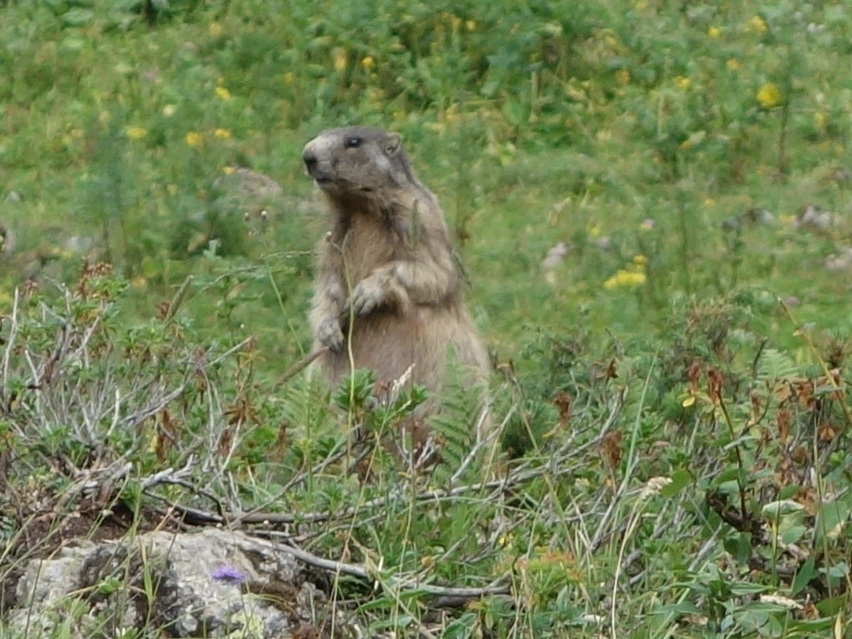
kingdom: Animalia
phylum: Chordata
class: Mammalia
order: Rodentia
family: Sciuridae
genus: Marmota
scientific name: Marmota marmota
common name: Alpine marmot
